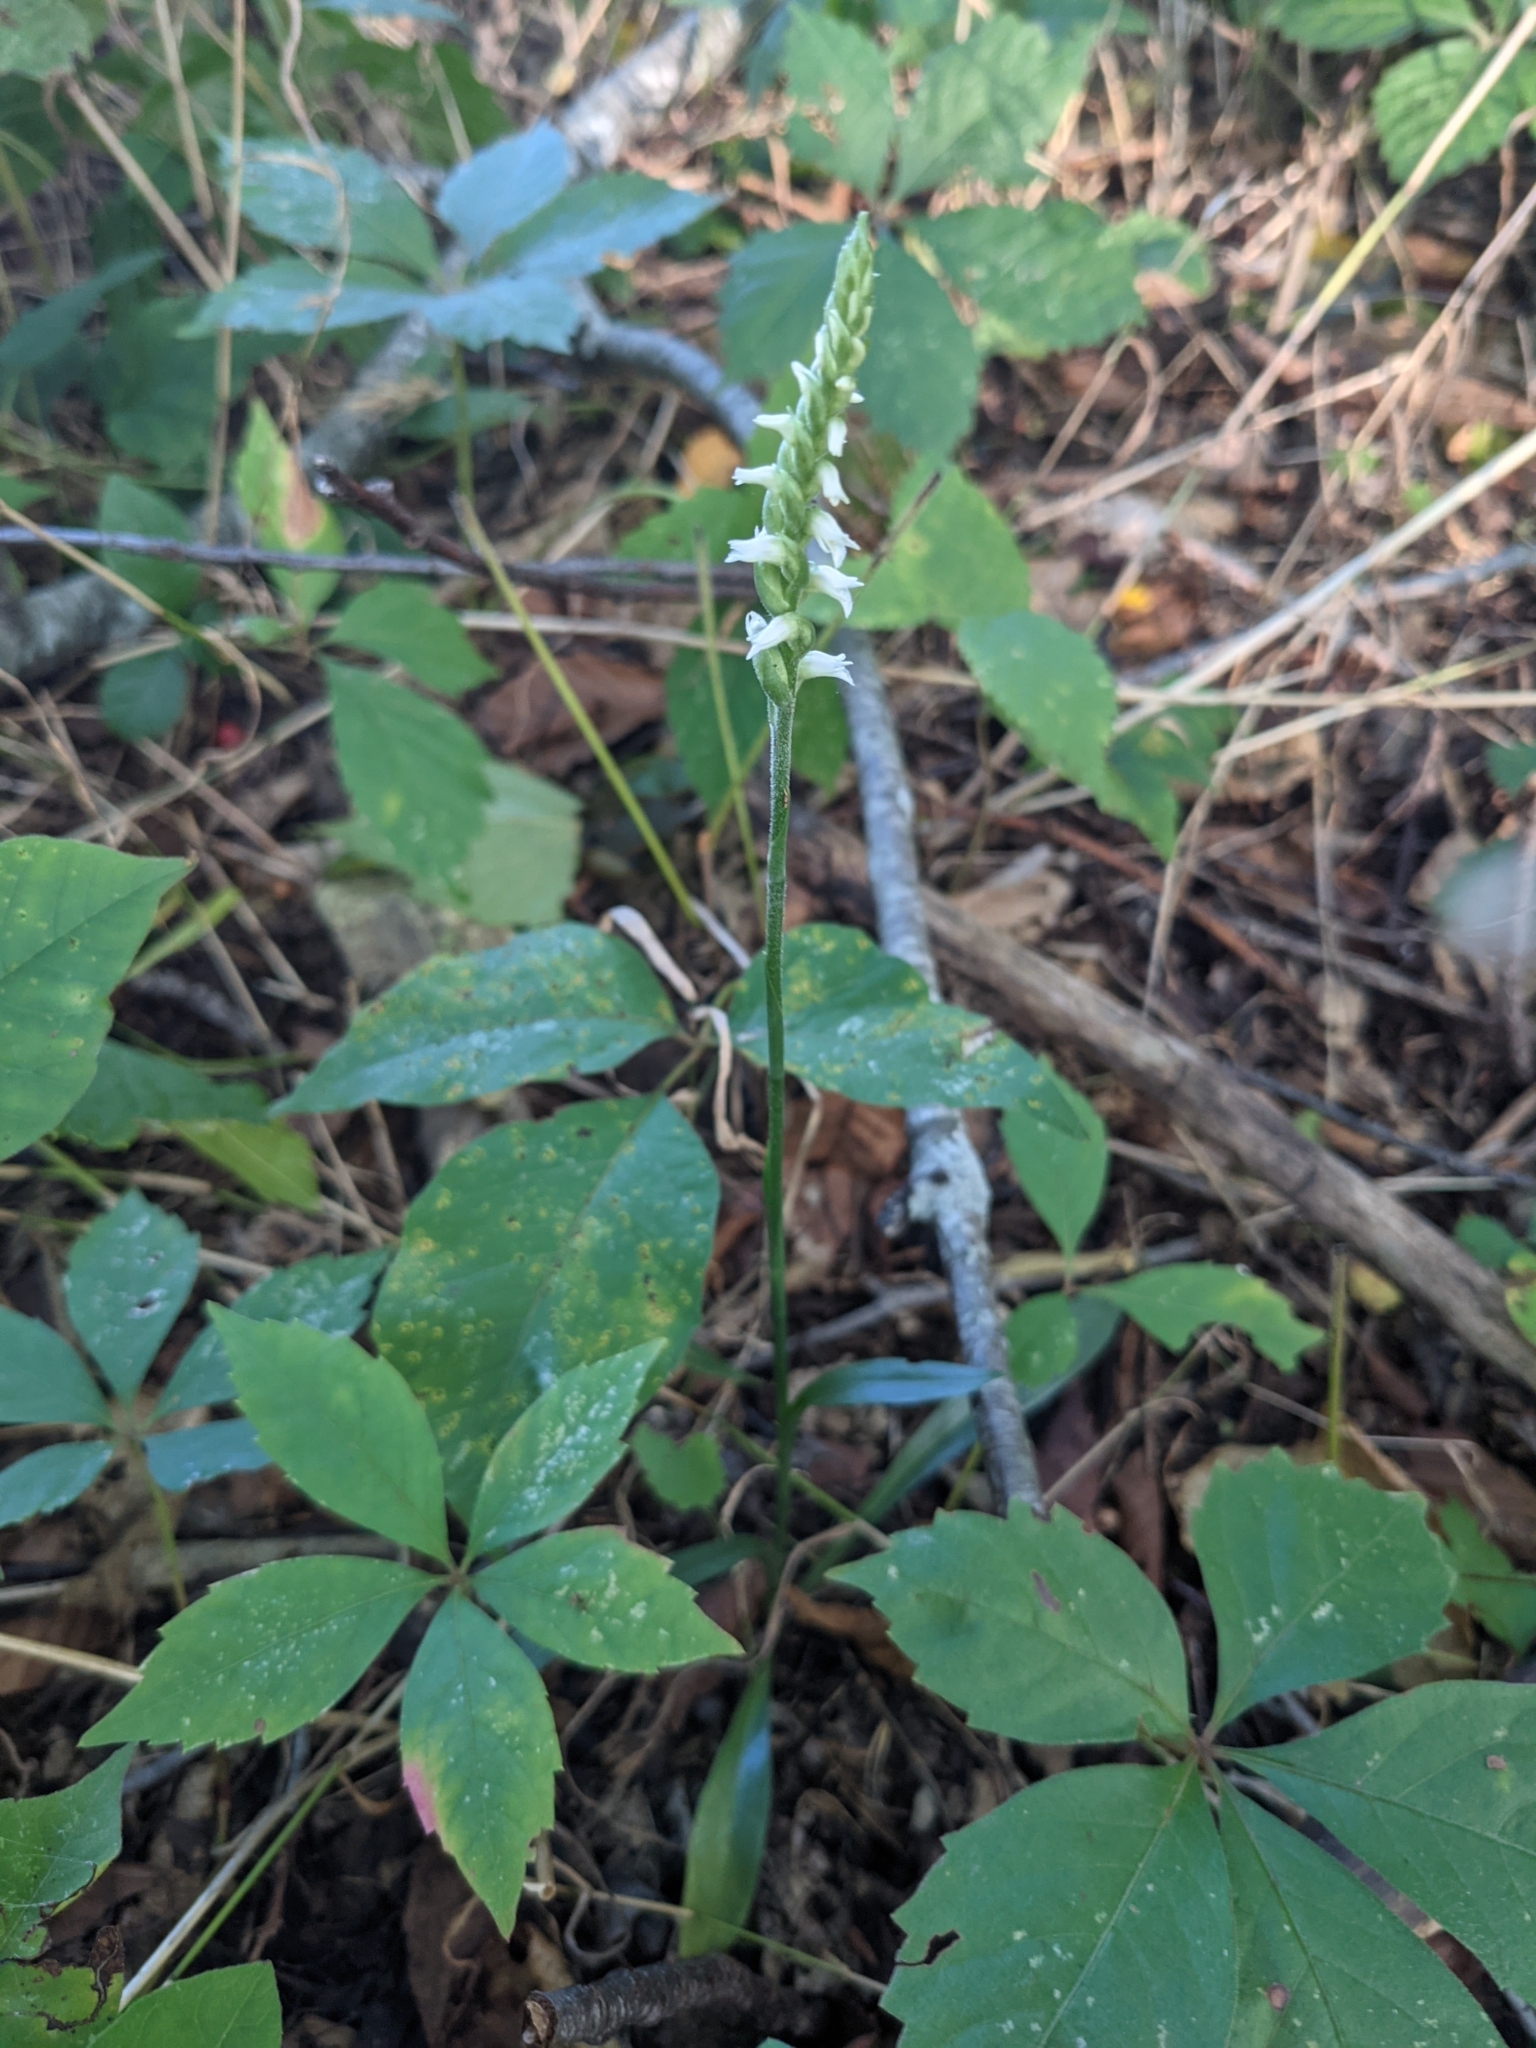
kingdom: Plantae
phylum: Tracheophyta
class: Liliopsida
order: Asparagales
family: Orchidaceae
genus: Spiranthes
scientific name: Spiranthes ovalis
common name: October ladies'-tresses
